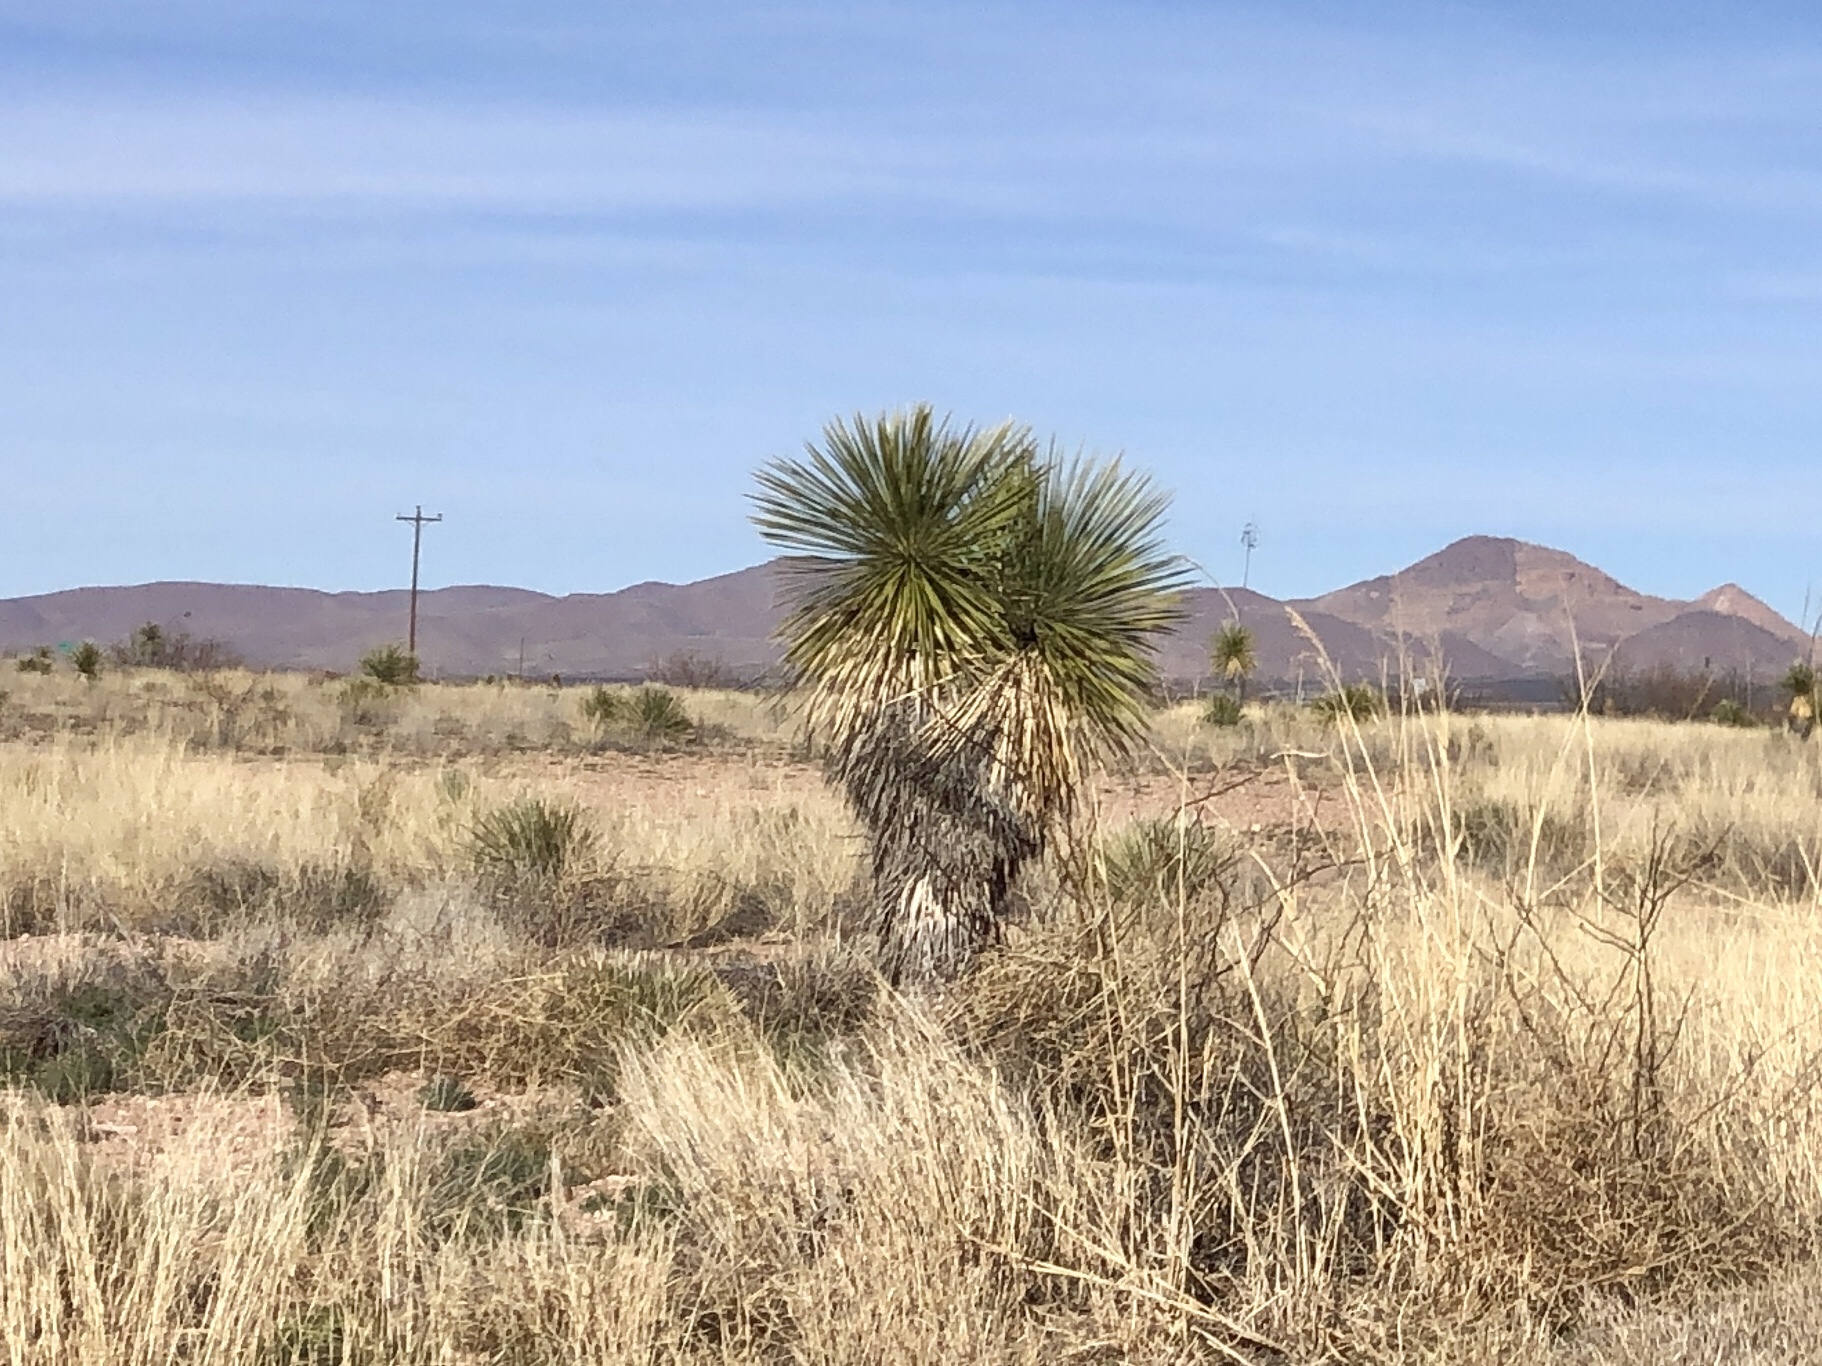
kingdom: Plantae
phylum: Tracheophyta
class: Liliopsida
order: Asparagales
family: Asparagaceae
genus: Yucca
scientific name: Yucca elata
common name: Palmella
